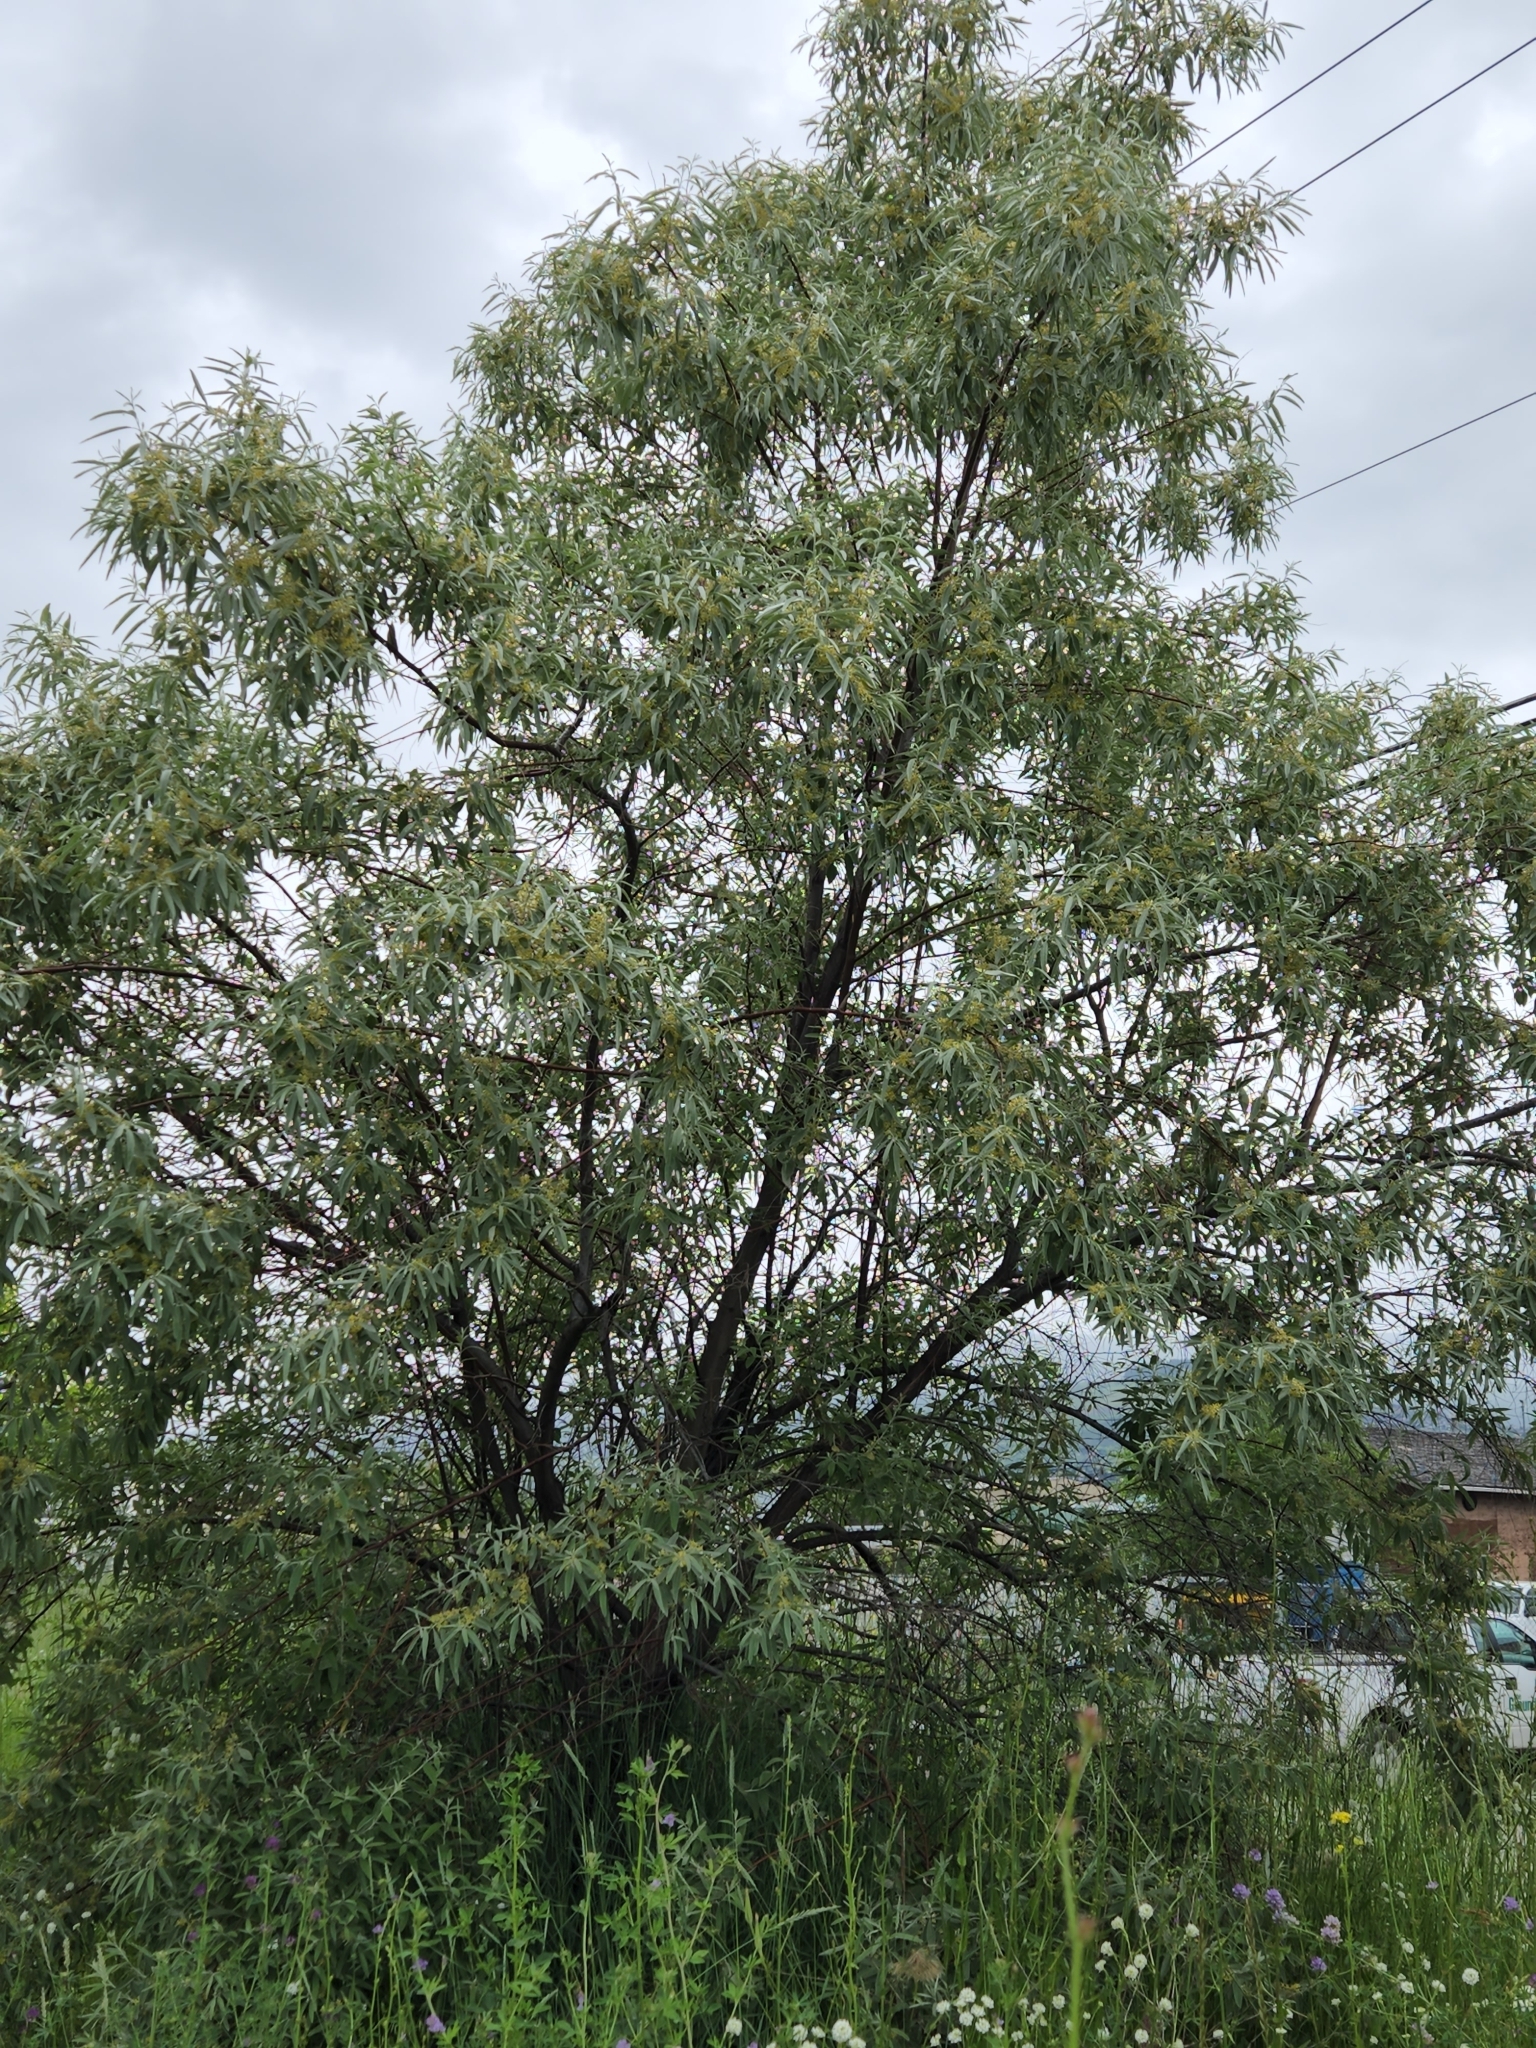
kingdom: Plantae
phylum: Tracheophyta
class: Magnoliopsida
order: Rosales
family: Elaeagnaceae
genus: Elaeagnus
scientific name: Elaeagnus angustifolia
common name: Russian olive
